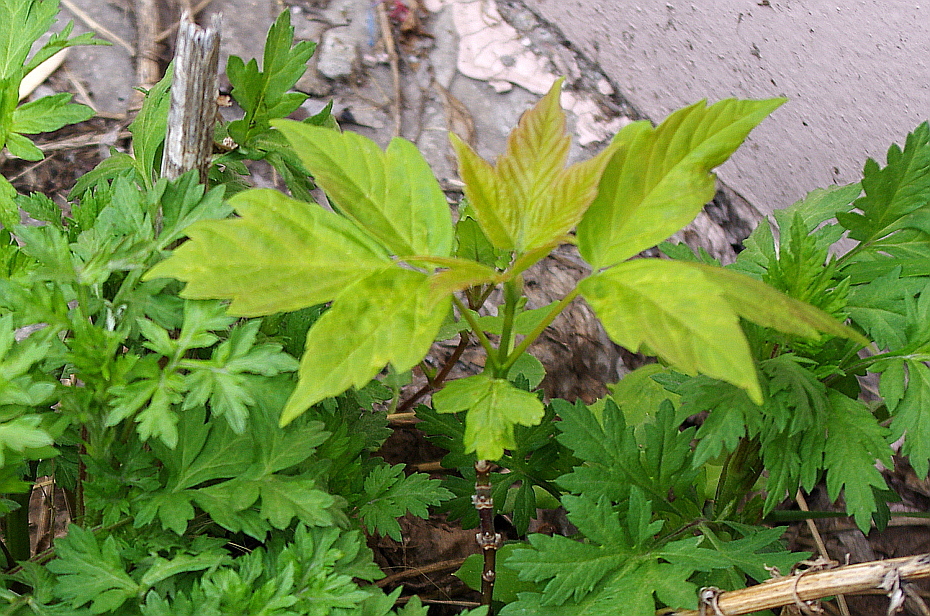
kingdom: Plantae
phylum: Tracheophyta
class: Magnoliopsida
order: Sapindales
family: Sapindaceae
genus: Acer
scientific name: Acer negundo
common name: Ashleaf maple
